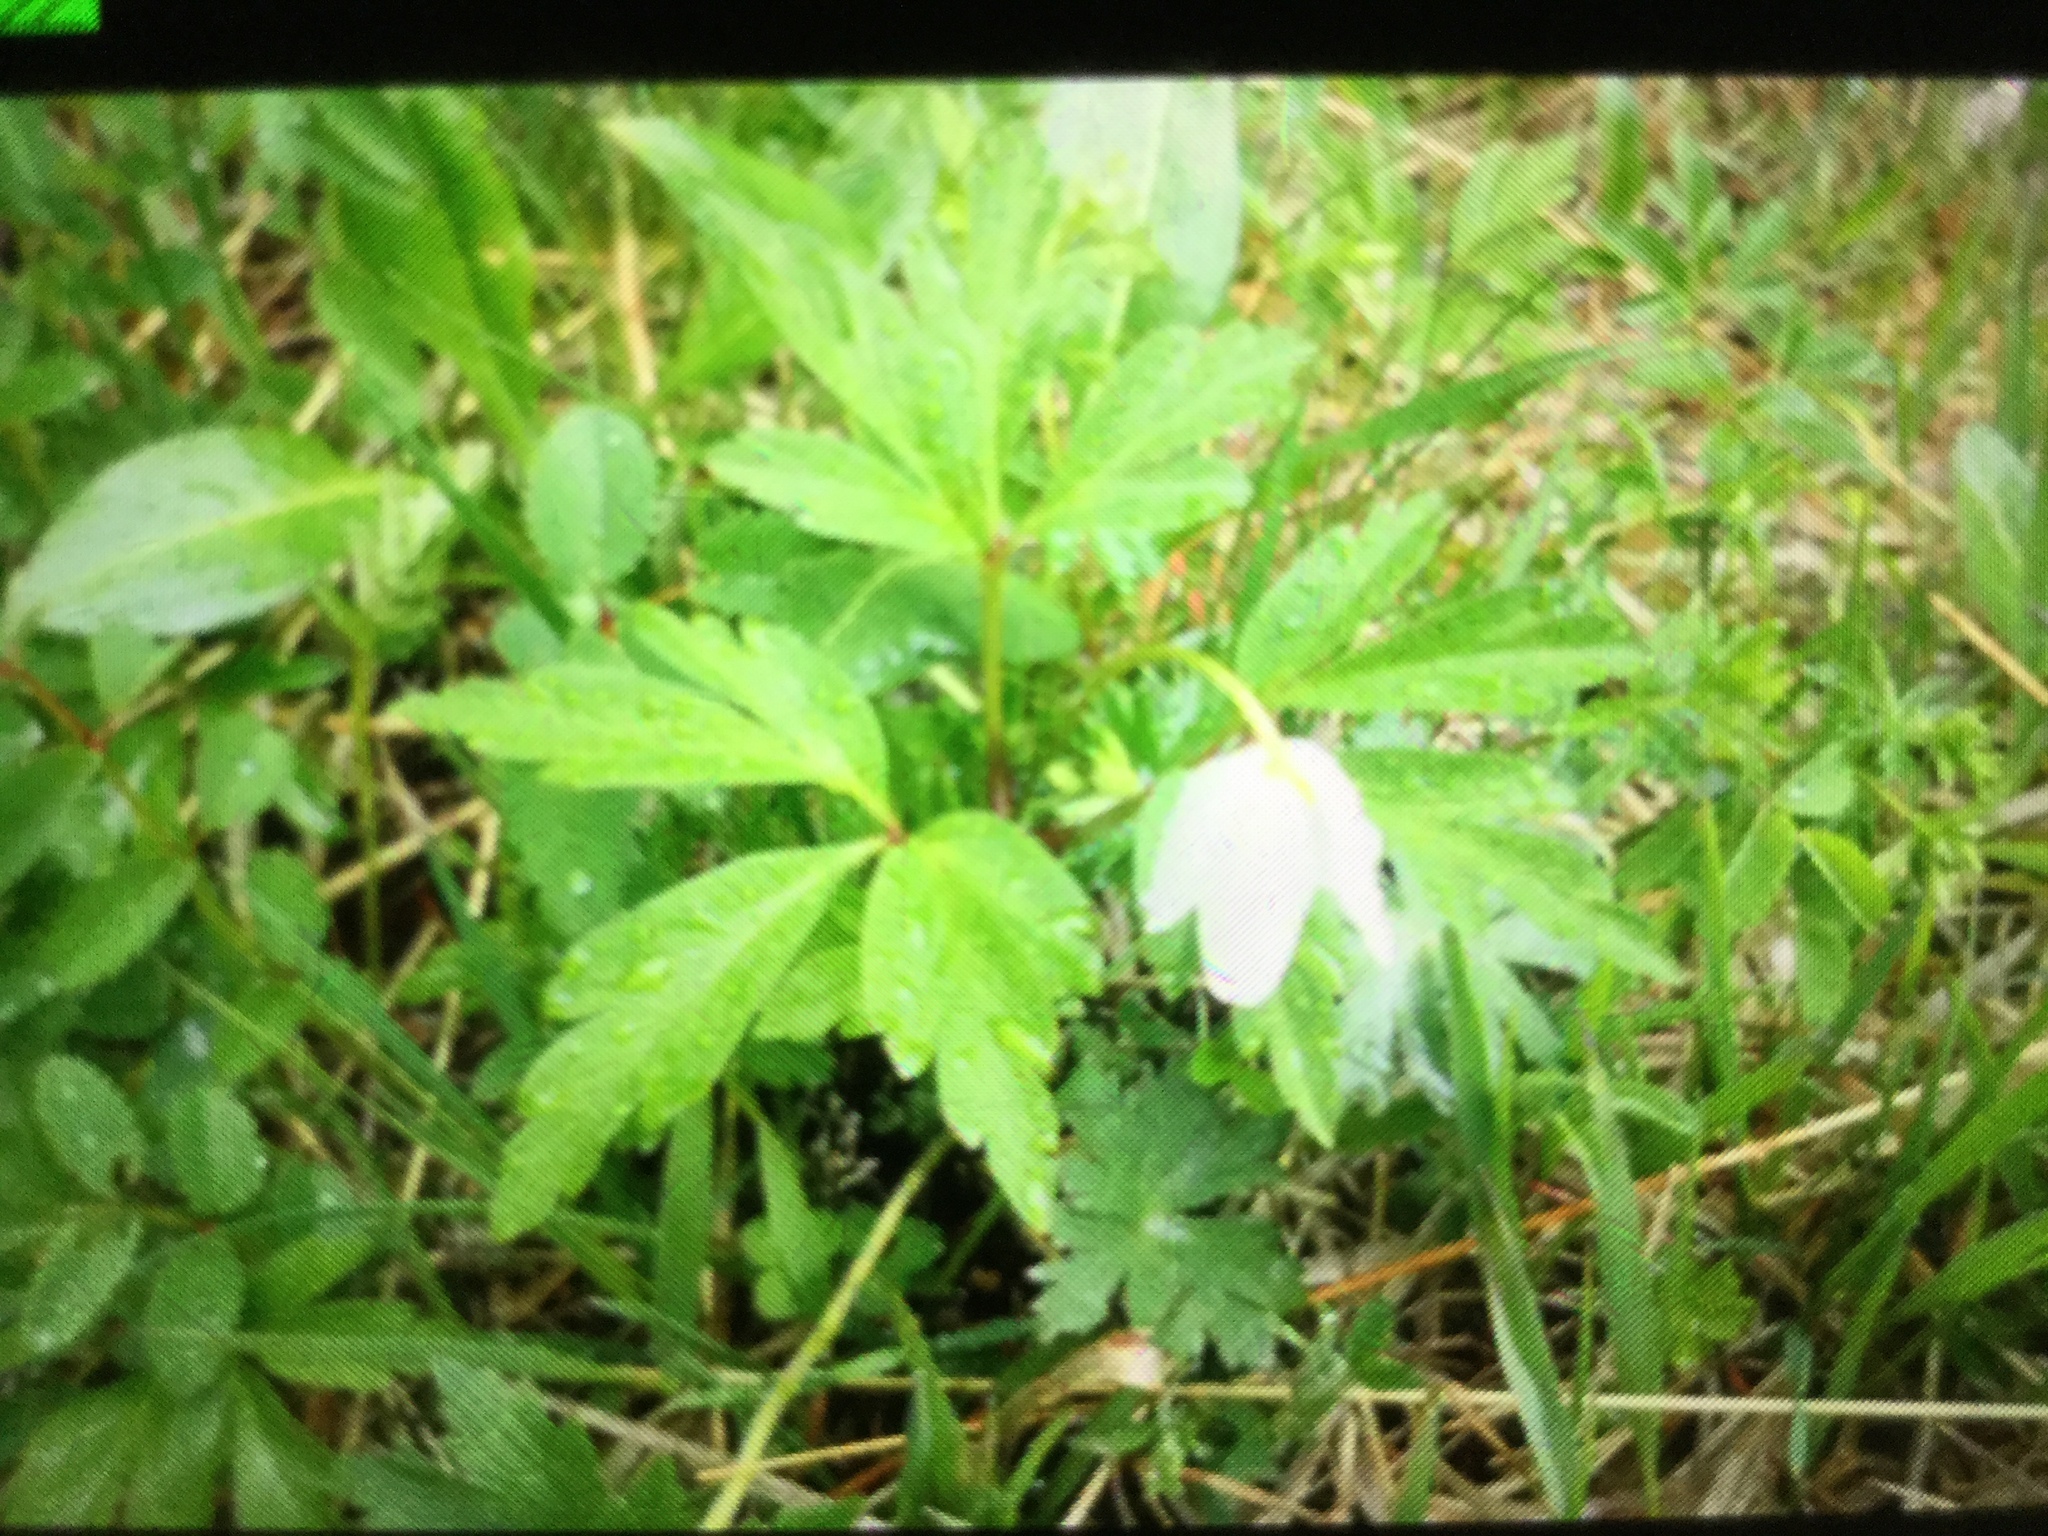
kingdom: Plantae
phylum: Tracheophyta
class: Magnoliopsida
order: Ranunculales
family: Ranunculaceae
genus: Anemone
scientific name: Anemone nemorosa
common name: Wood anemone
